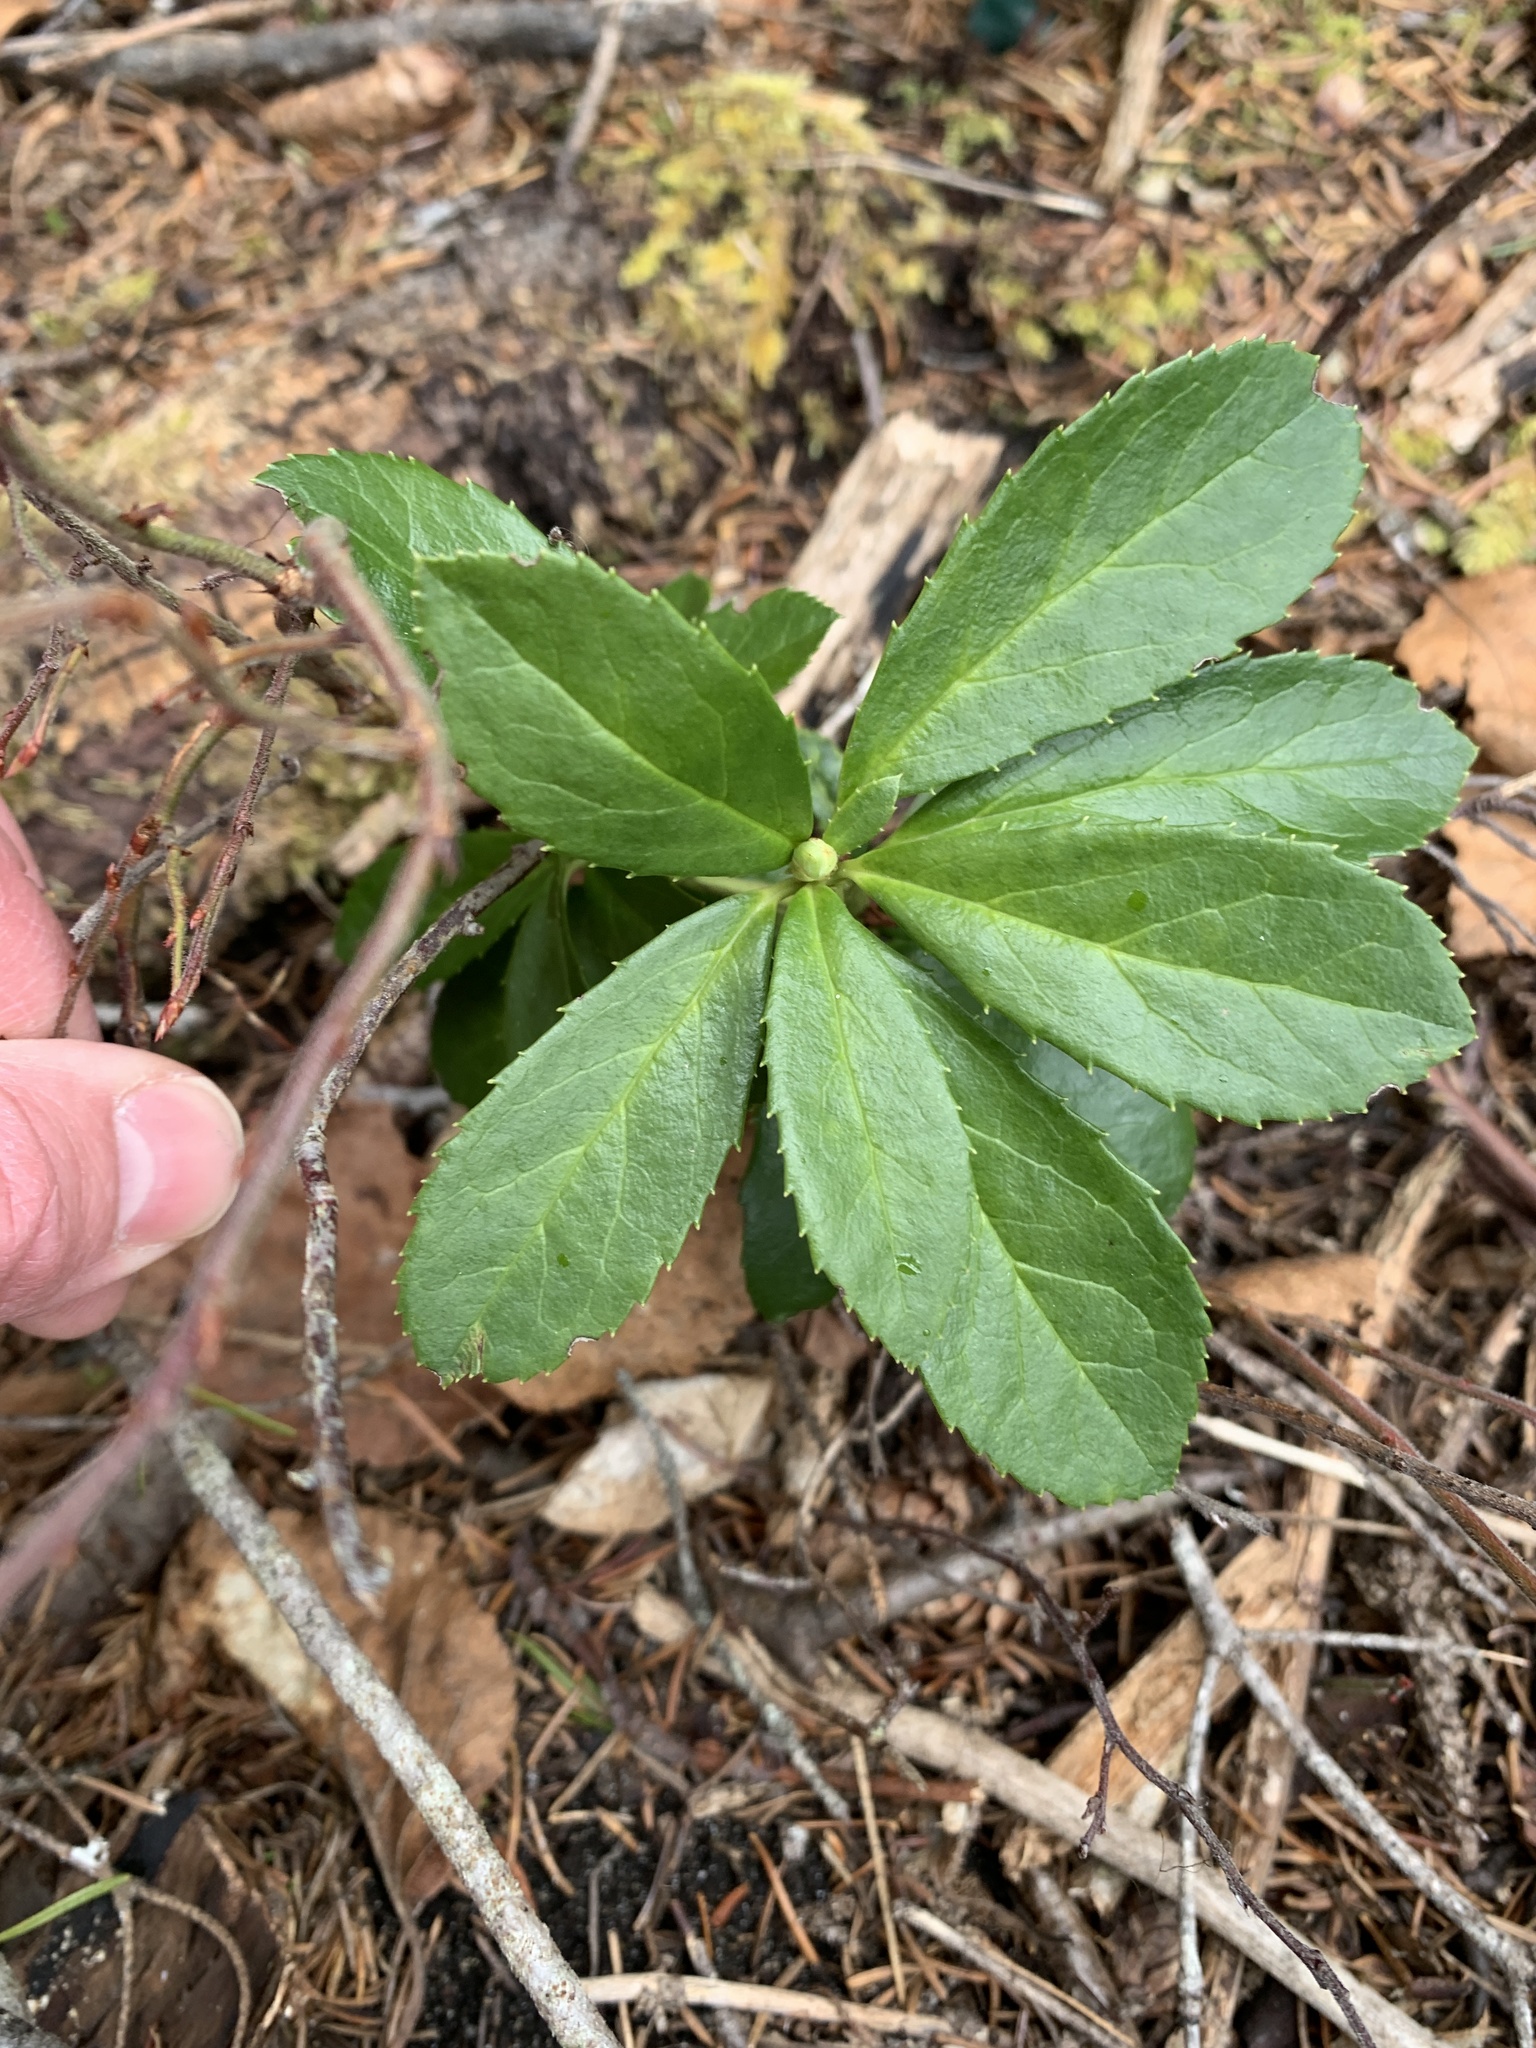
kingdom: Plantae
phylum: Tracheophyta
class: Magnoliopsida
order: Ericales
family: Ericaceae
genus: Chimaphila
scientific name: Chimaphila umbellata
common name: Pipsissewa
